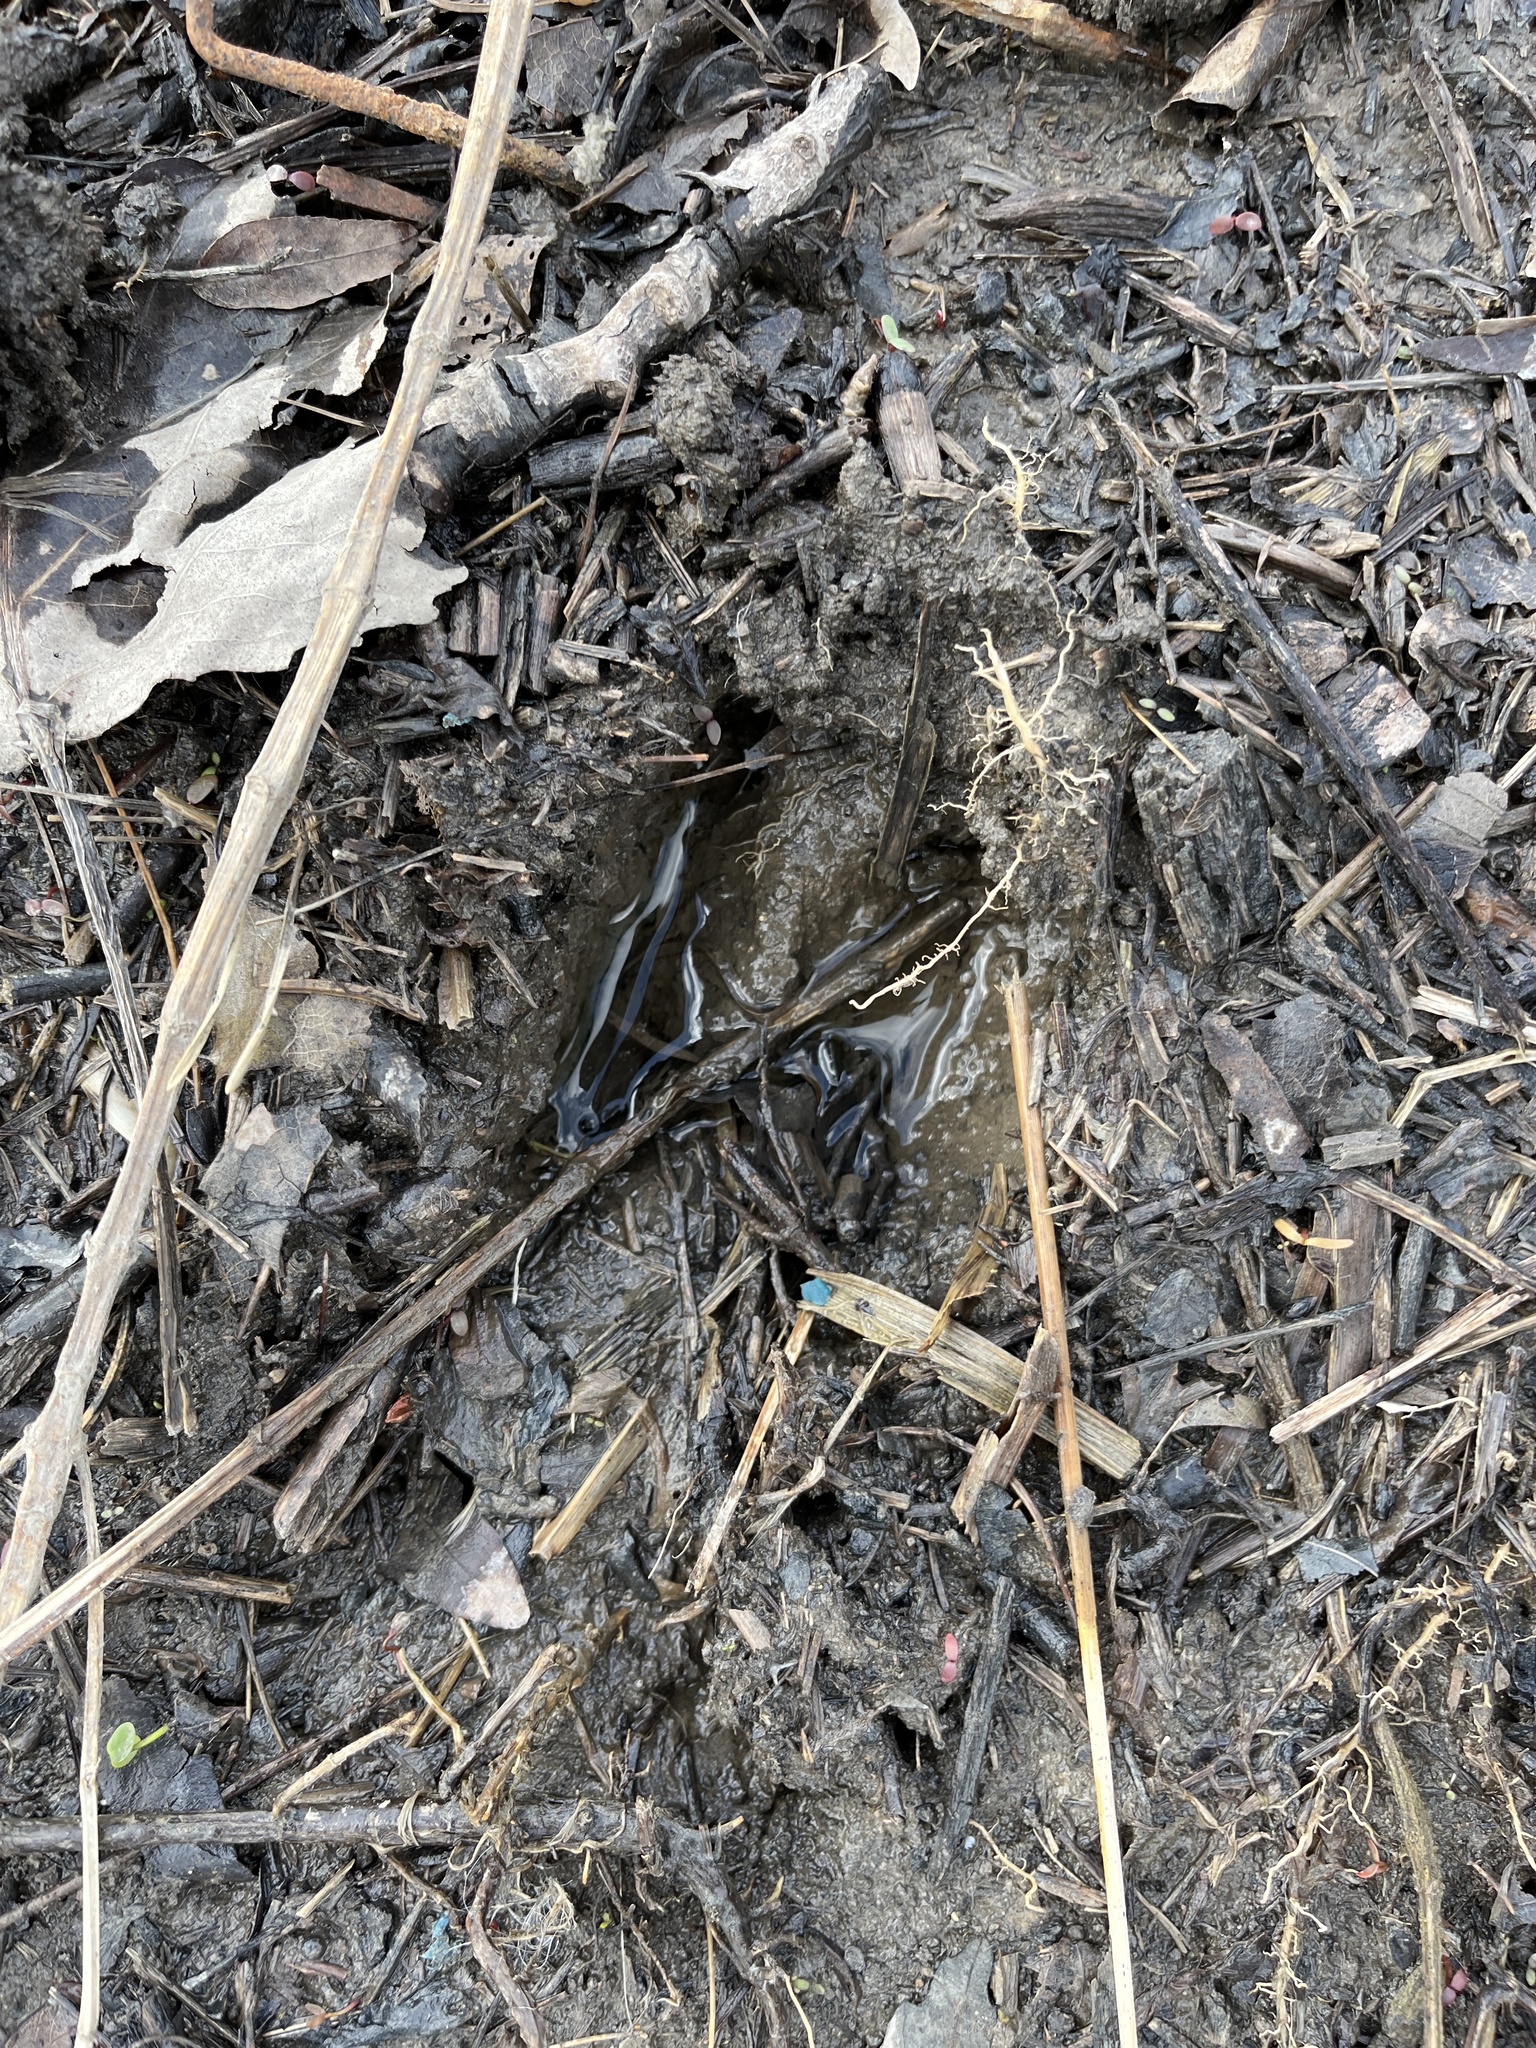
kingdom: Animalia
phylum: Chordata
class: Mammalia
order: Artiodactyla
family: Cervidae
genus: Odocoileus
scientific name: Odocoileus virginianus
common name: White-tailed deer
